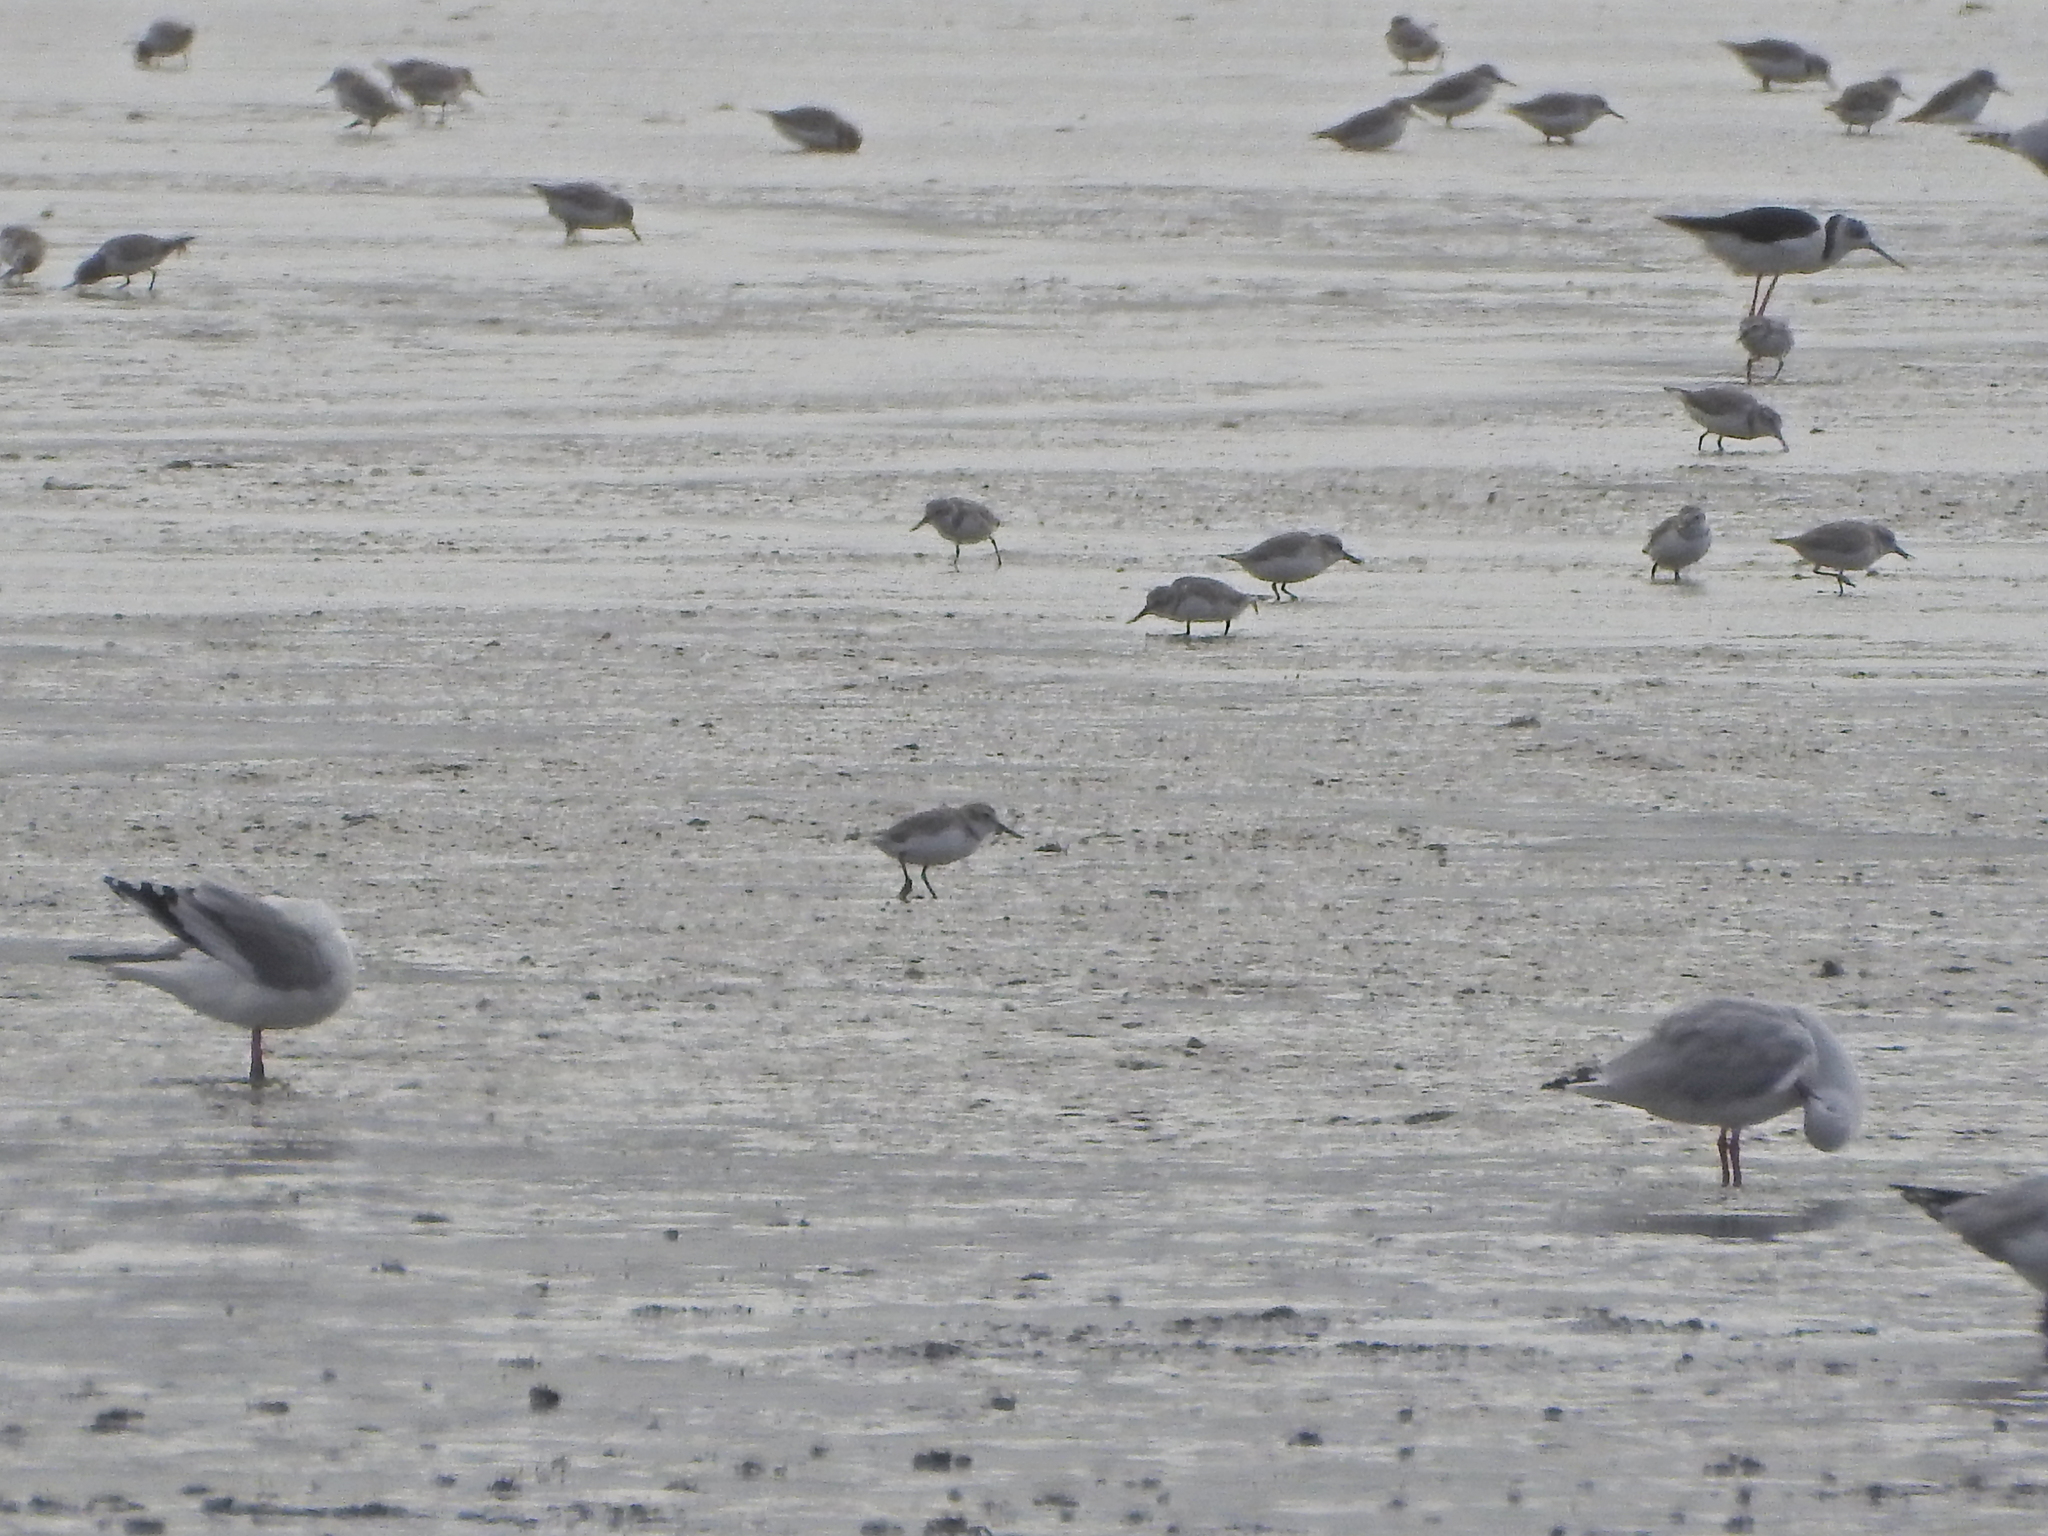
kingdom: Animalia
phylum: Chordata
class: Aves
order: Charadriiformes
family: Charadriidae
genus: Anarhynchus
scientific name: Anarhynchus frontalis
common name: Wrybill
